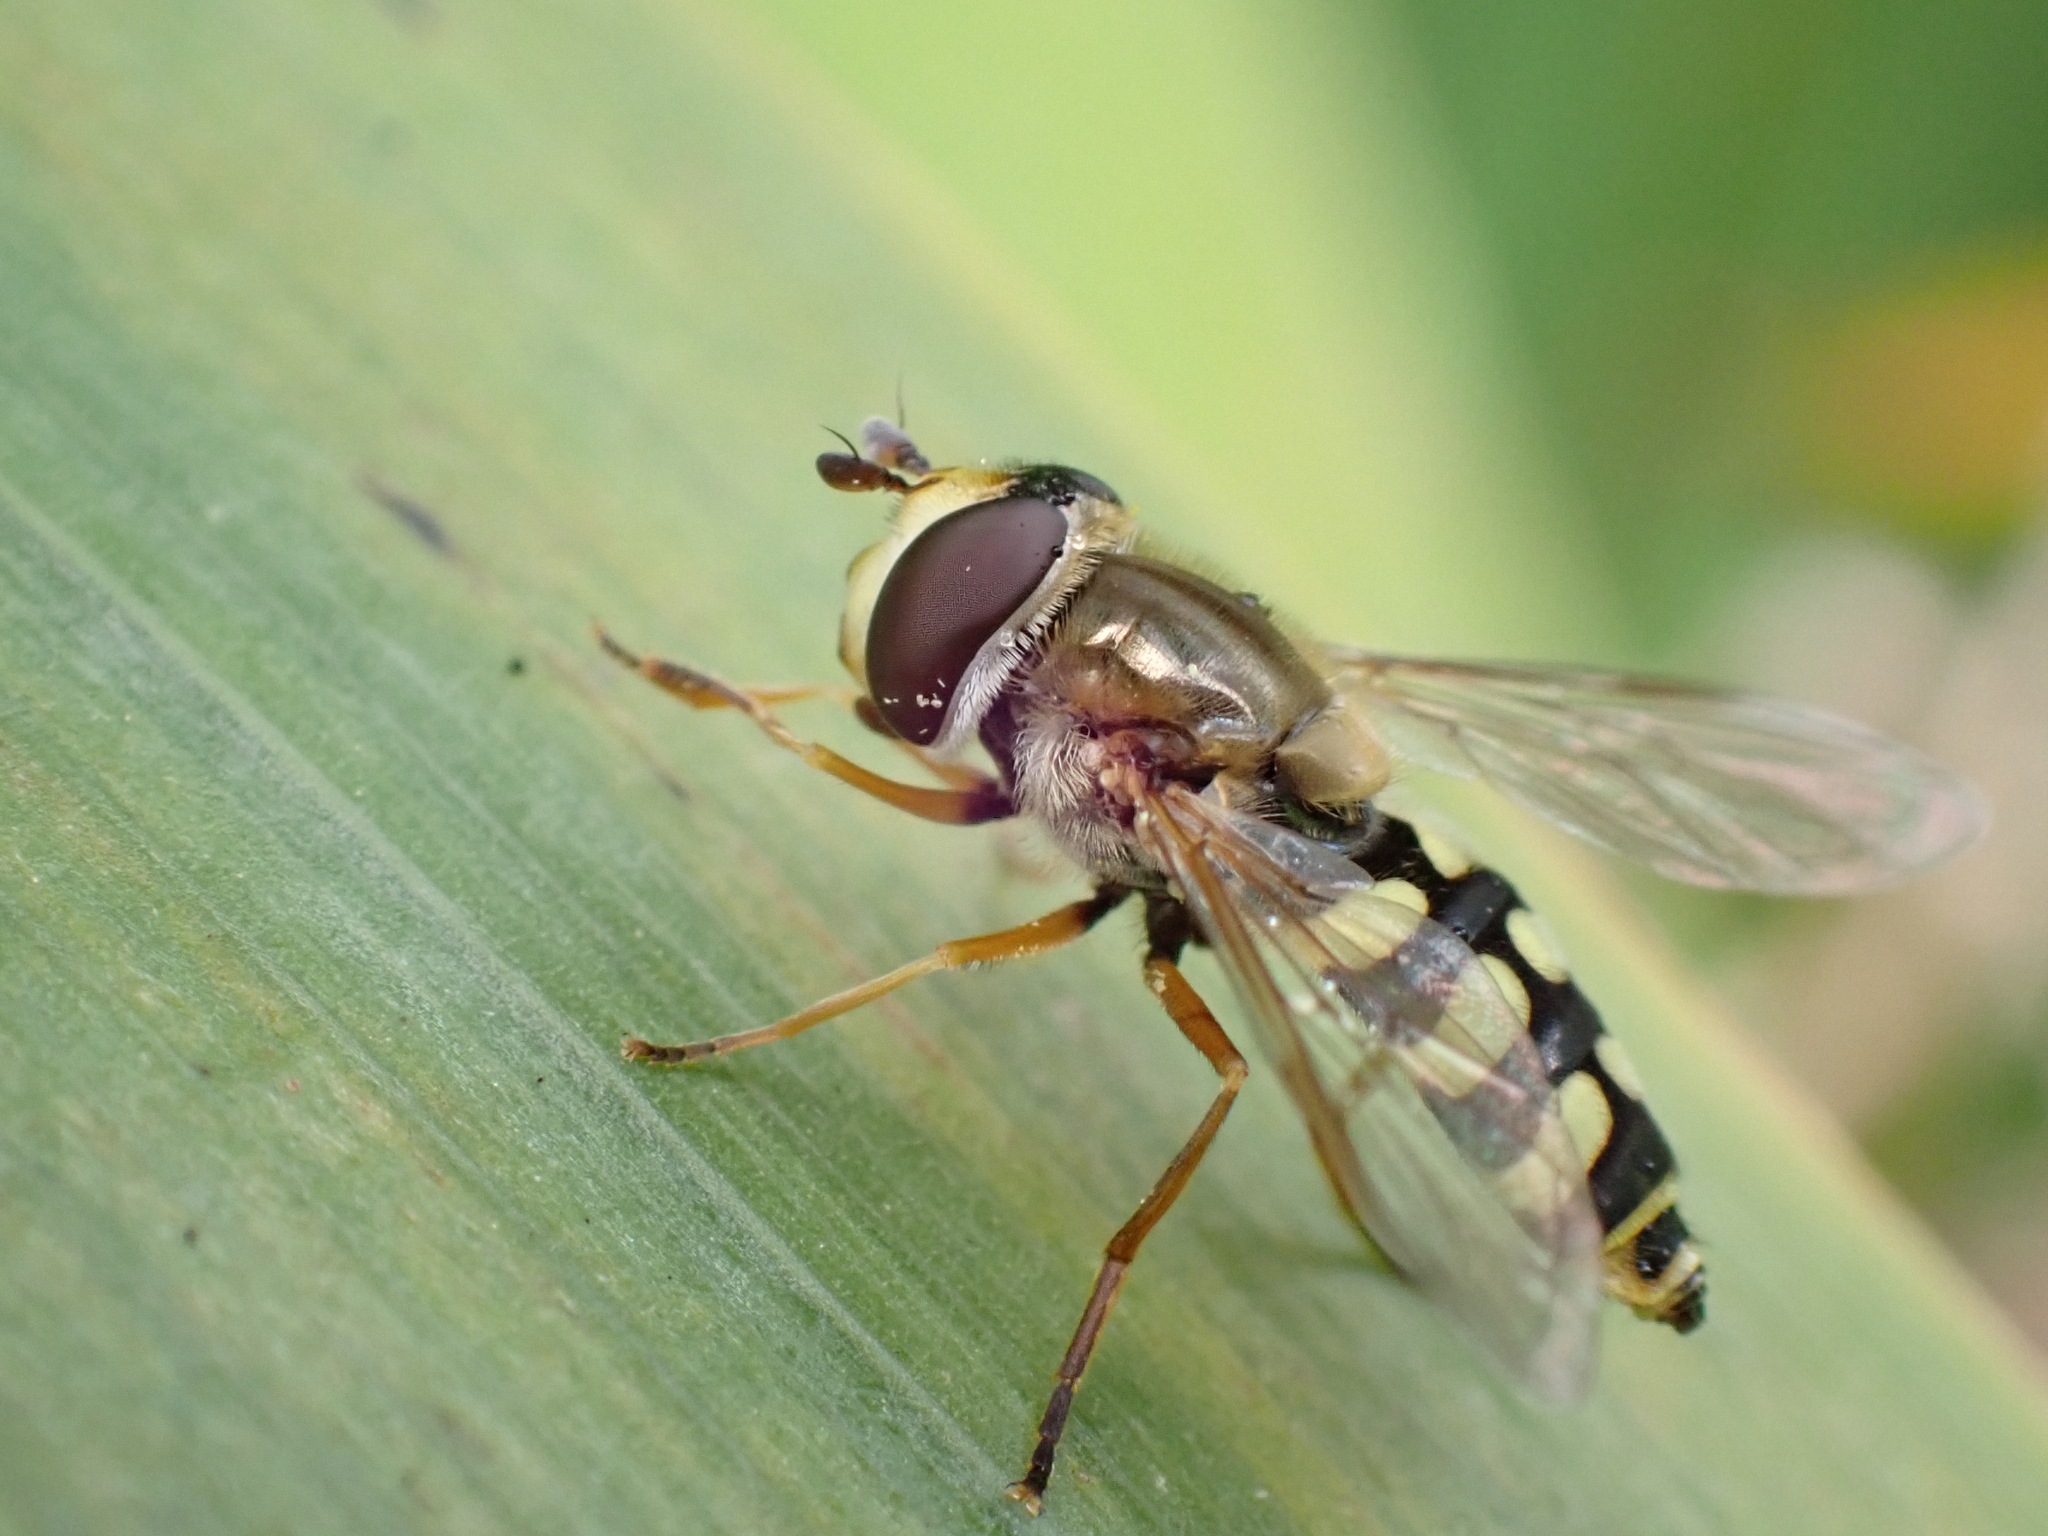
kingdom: Animalia
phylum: Arthropoda
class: Insecta
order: Diptera
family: Syrphidae
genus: Eupeodes
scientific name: Eupeodes corollae
